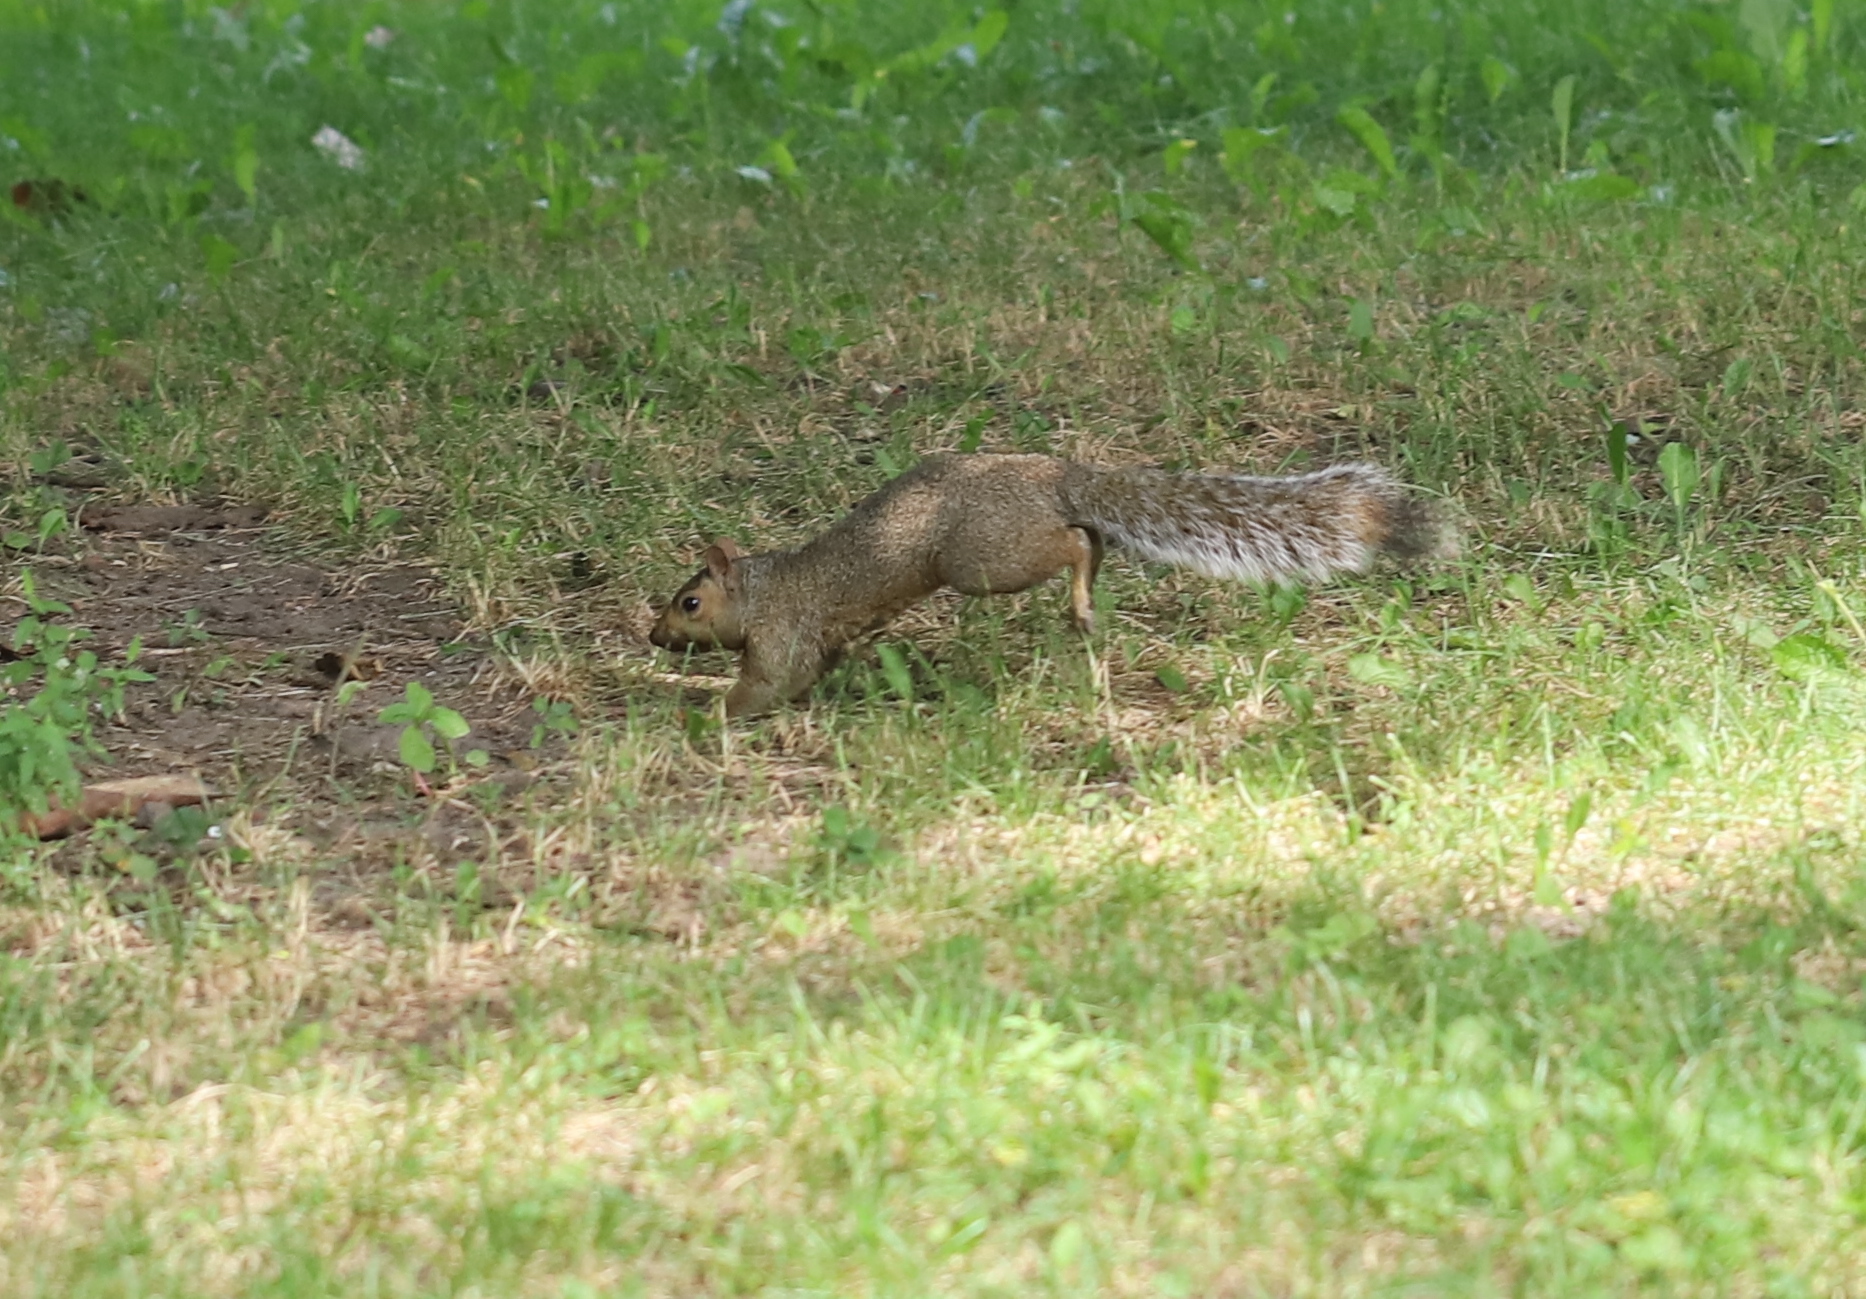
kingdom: Animalia
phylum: Chordata
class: Mammalia
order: Rodentia
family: Sciuridae
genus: Sciurus
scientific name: Sciurus carolinensis
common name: Eastern gray squirrel
